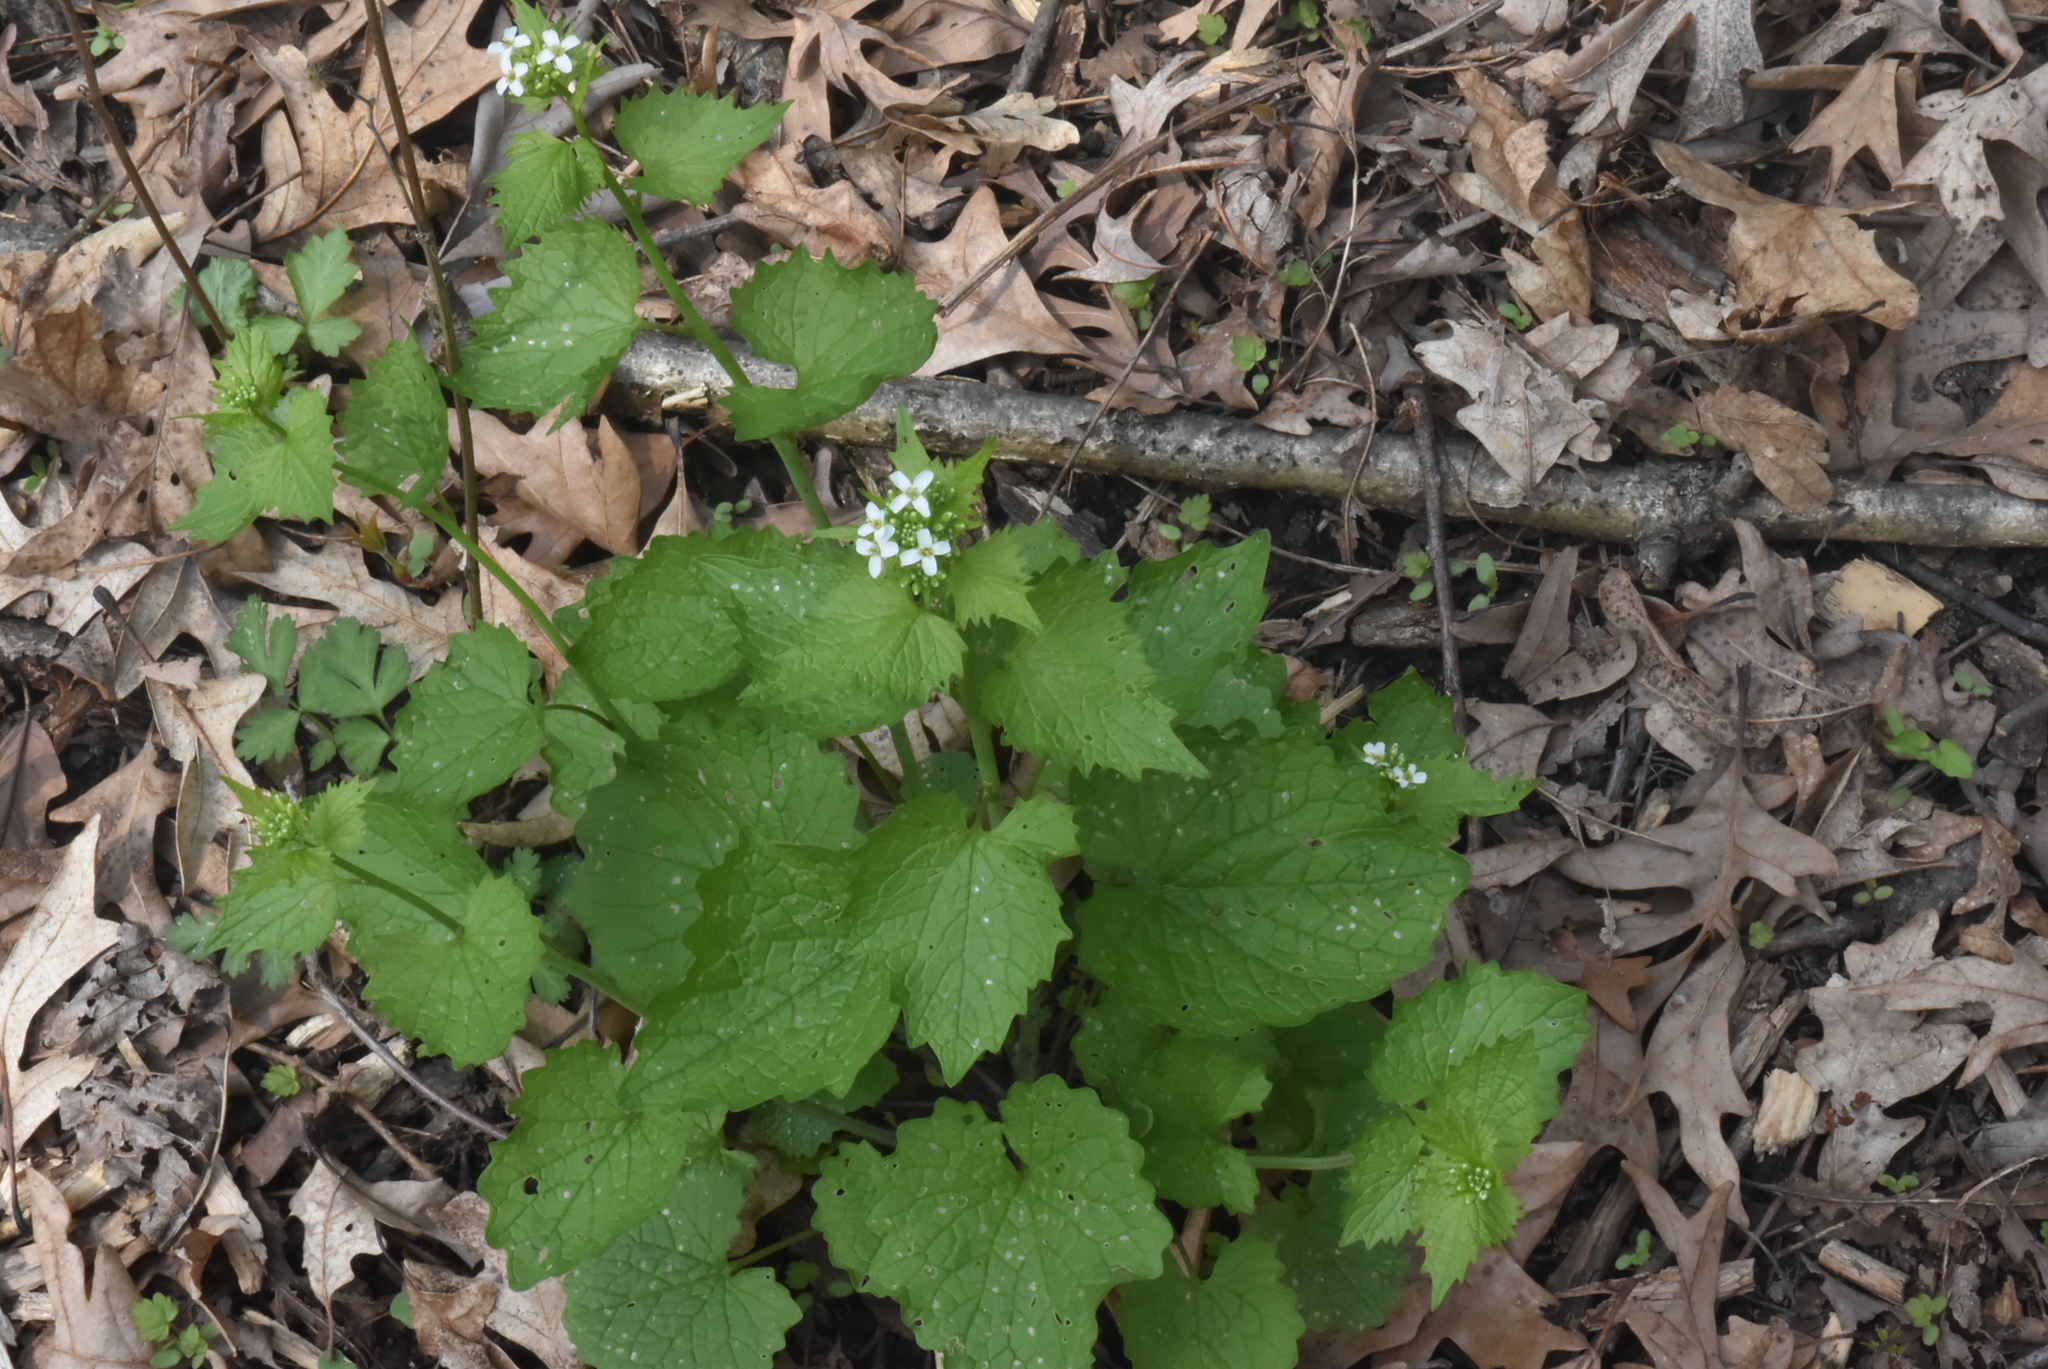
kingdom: Plantae
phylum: Tracheophyta
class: Magnoliopsida
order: Brassicales
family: Brassicaceae
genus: Alliaria
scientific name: Alliaria petiolata
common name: Garlic mustard
